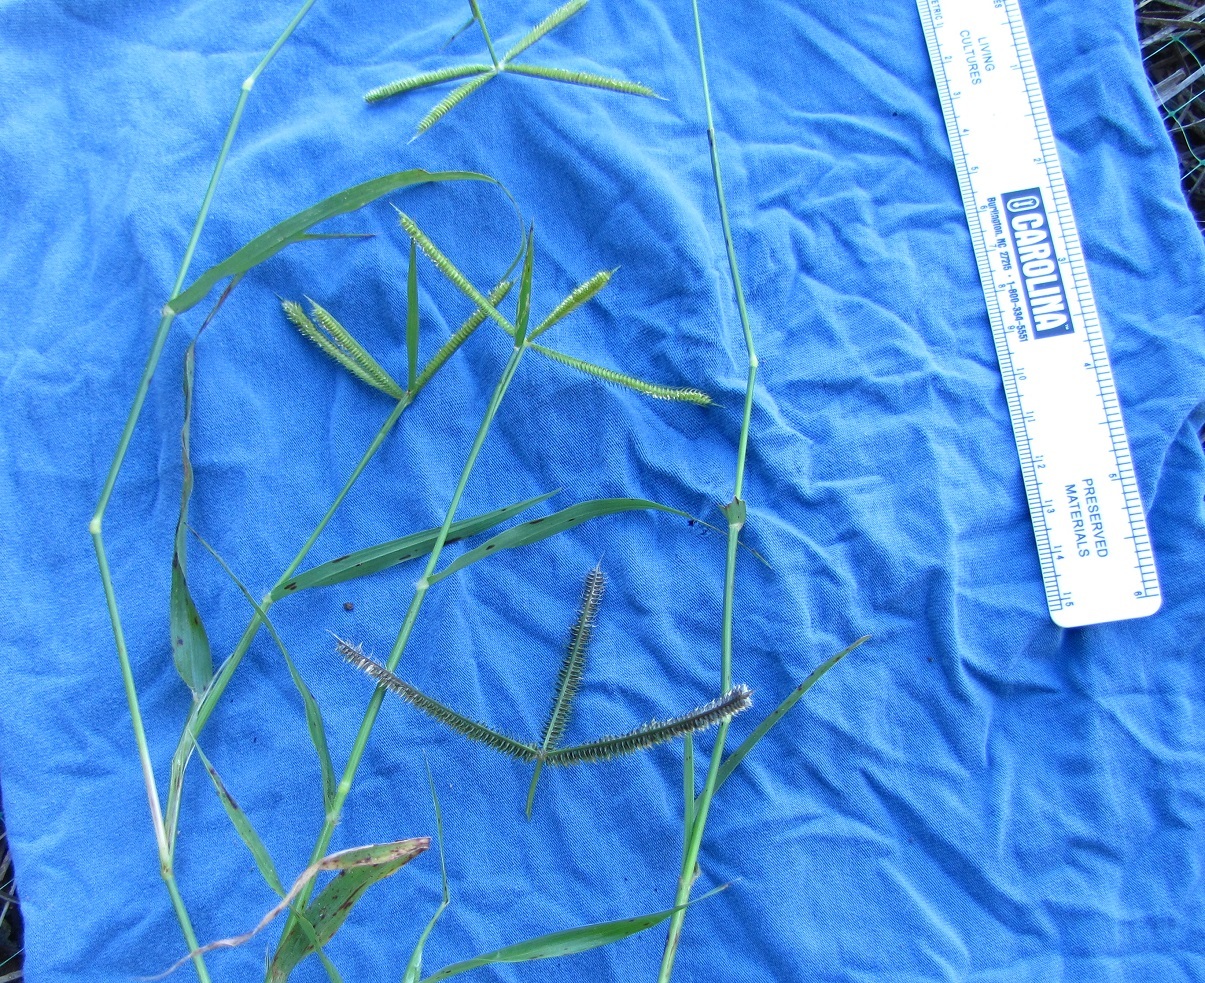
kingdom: Plantae
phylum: Tracheophyta
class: Liliopsida
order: Poales
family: Poaceae
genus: Dactyloctenium
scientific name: Dactyloctenium aegyptium
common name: Egyptian grass
